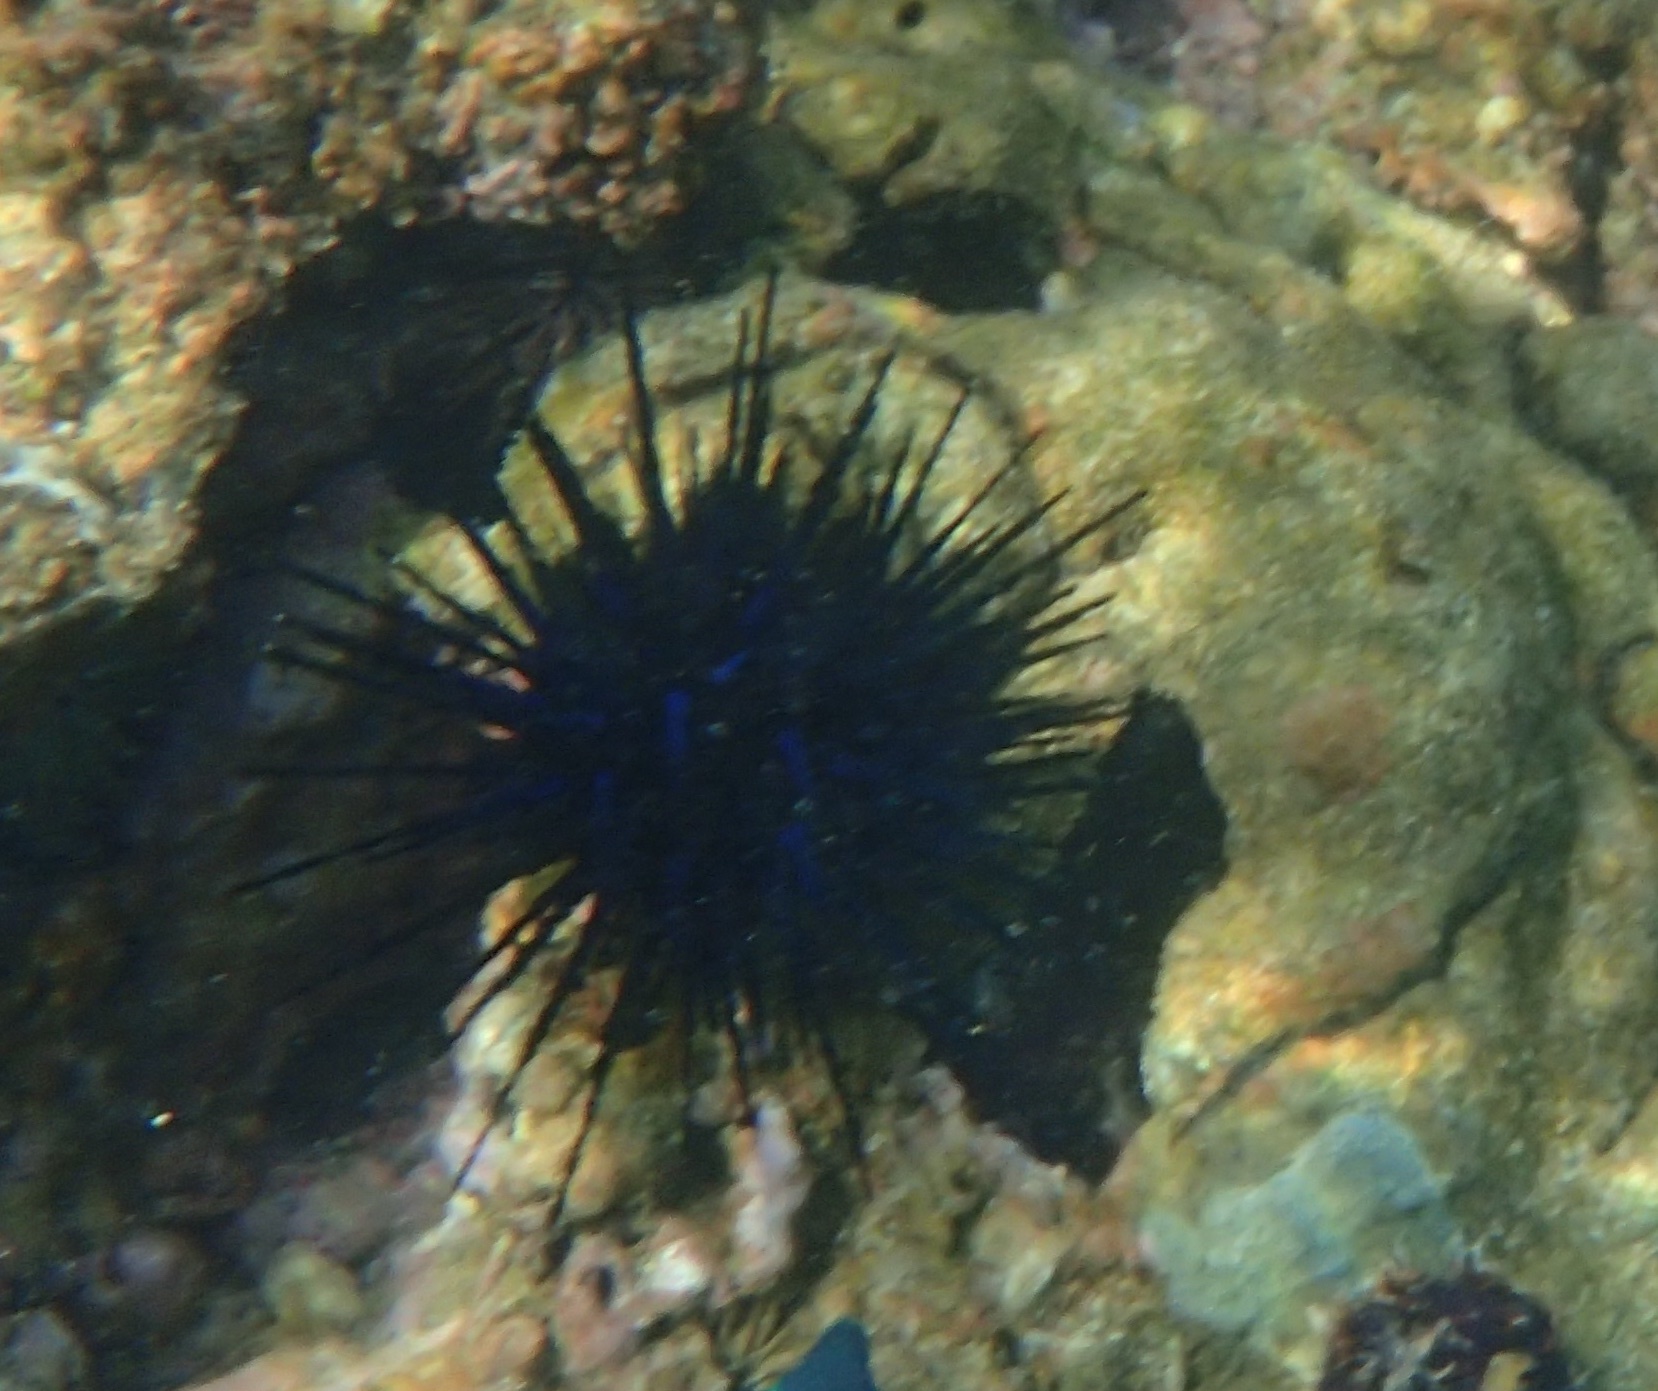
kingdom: Animalia
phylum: Echinodermata
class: Echinoidea
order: Diadematoida
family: Diadematidae
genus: Echinothrix
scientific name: Echinothrix diadema
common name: Schwarzer diademseeigel
